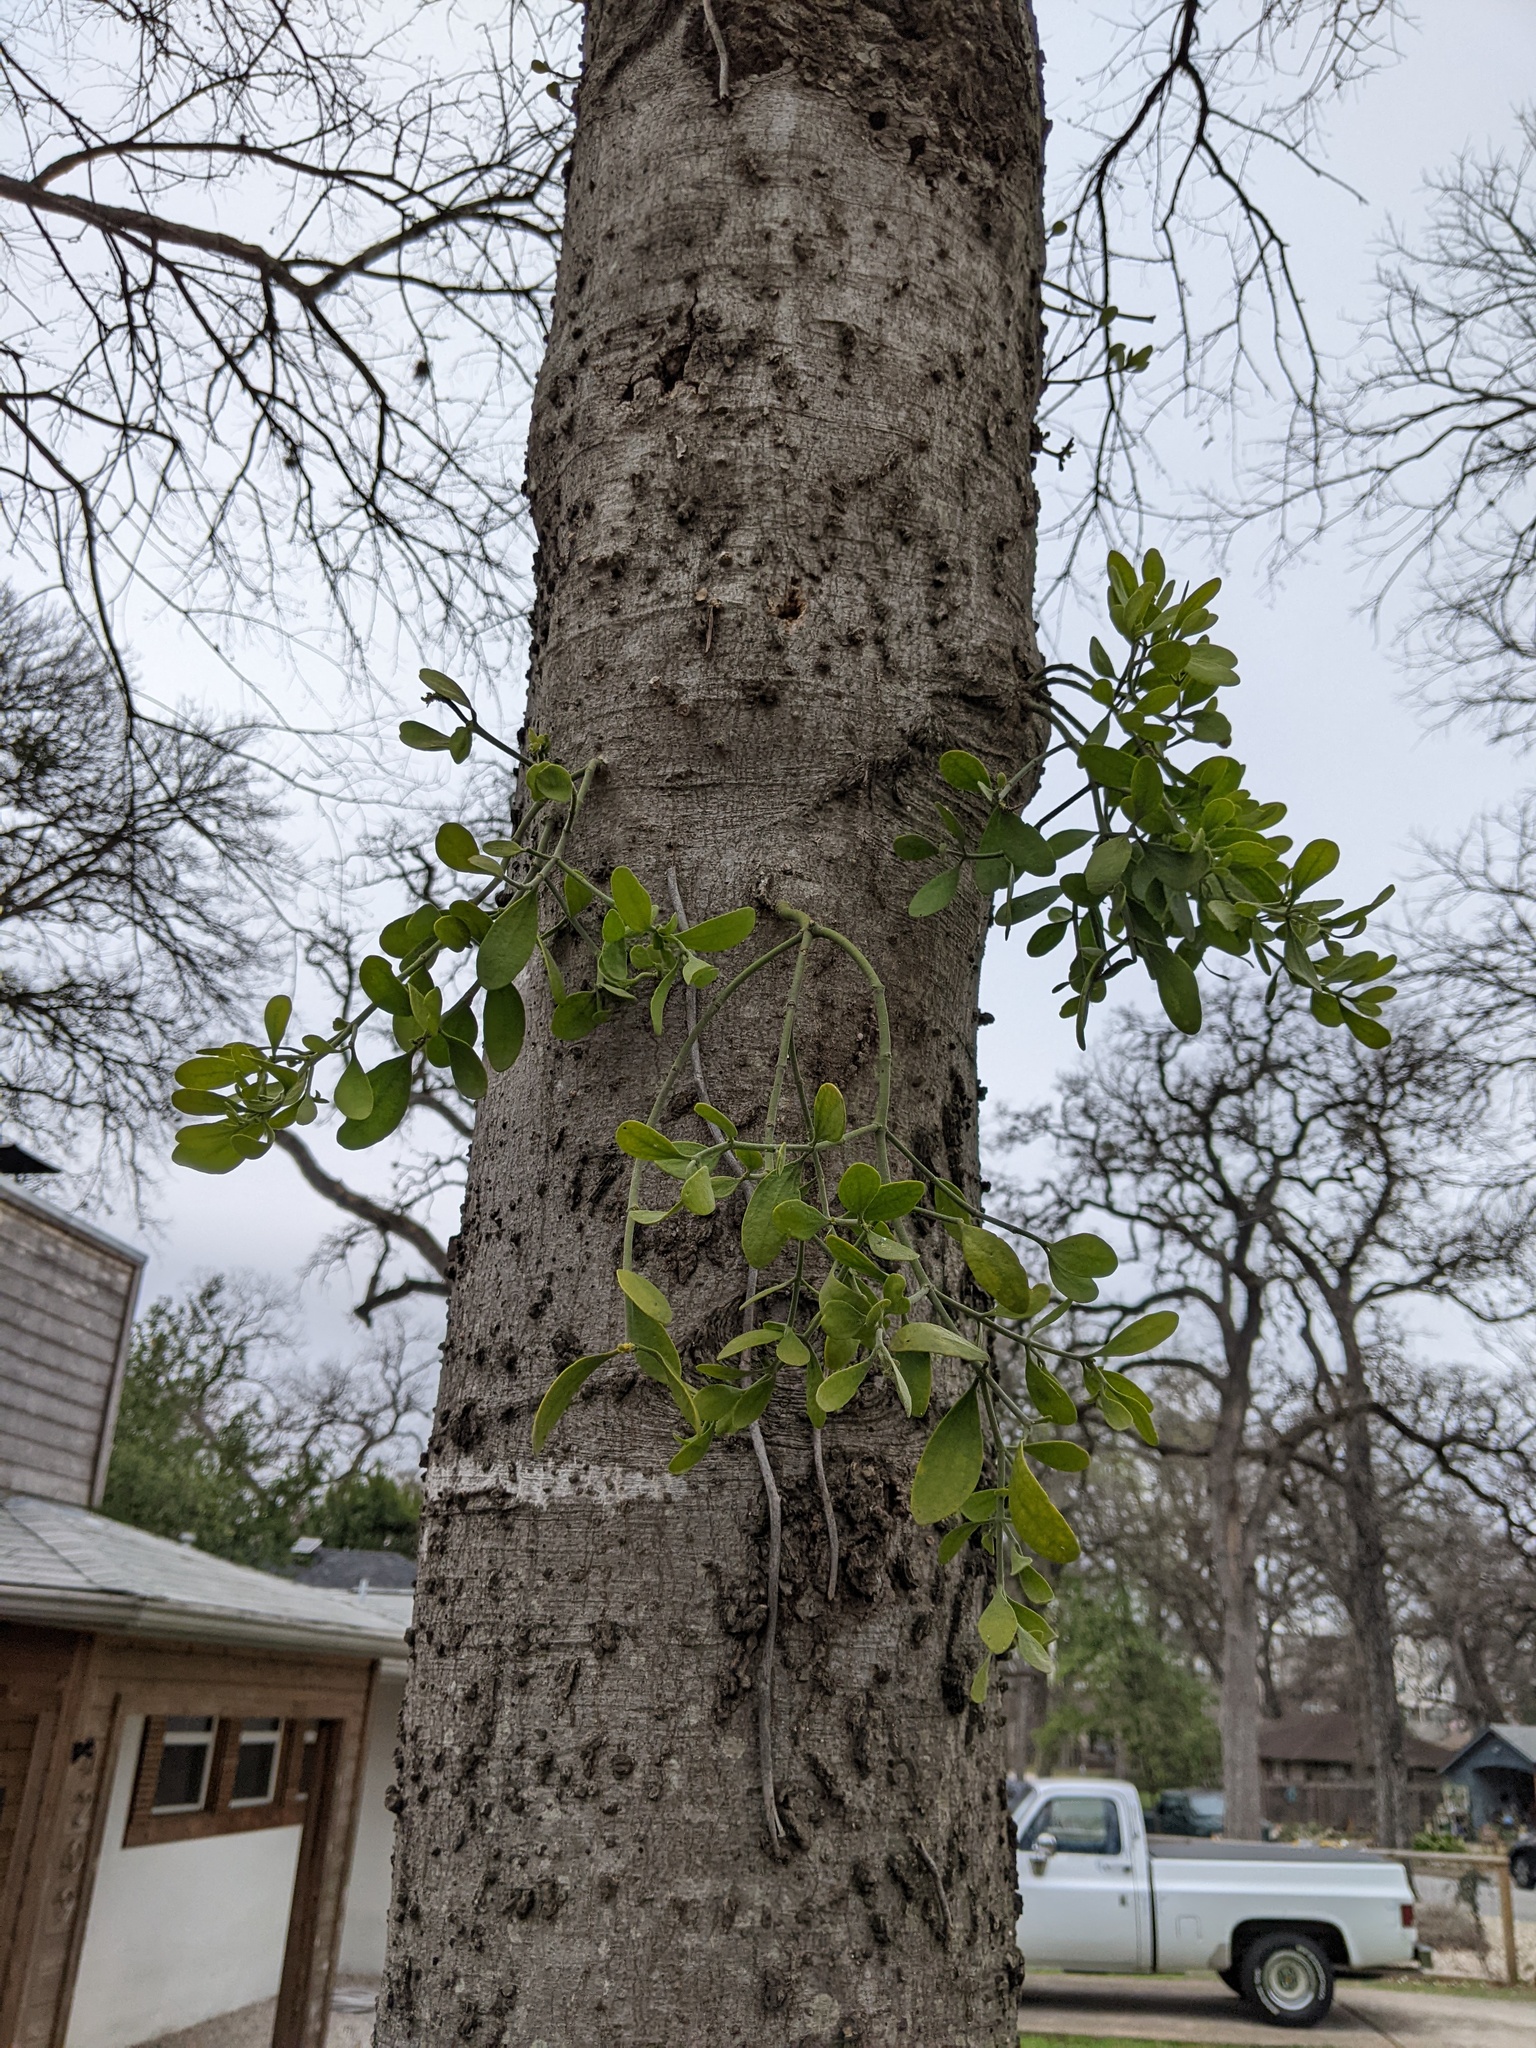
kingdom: Plantae
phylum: Tracheophyta
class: Magnoliopsida
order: Santalales
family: Viscaceae
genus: Phoradendron
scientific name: Phoradendron leucarpum
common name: Pacific mistletoe
